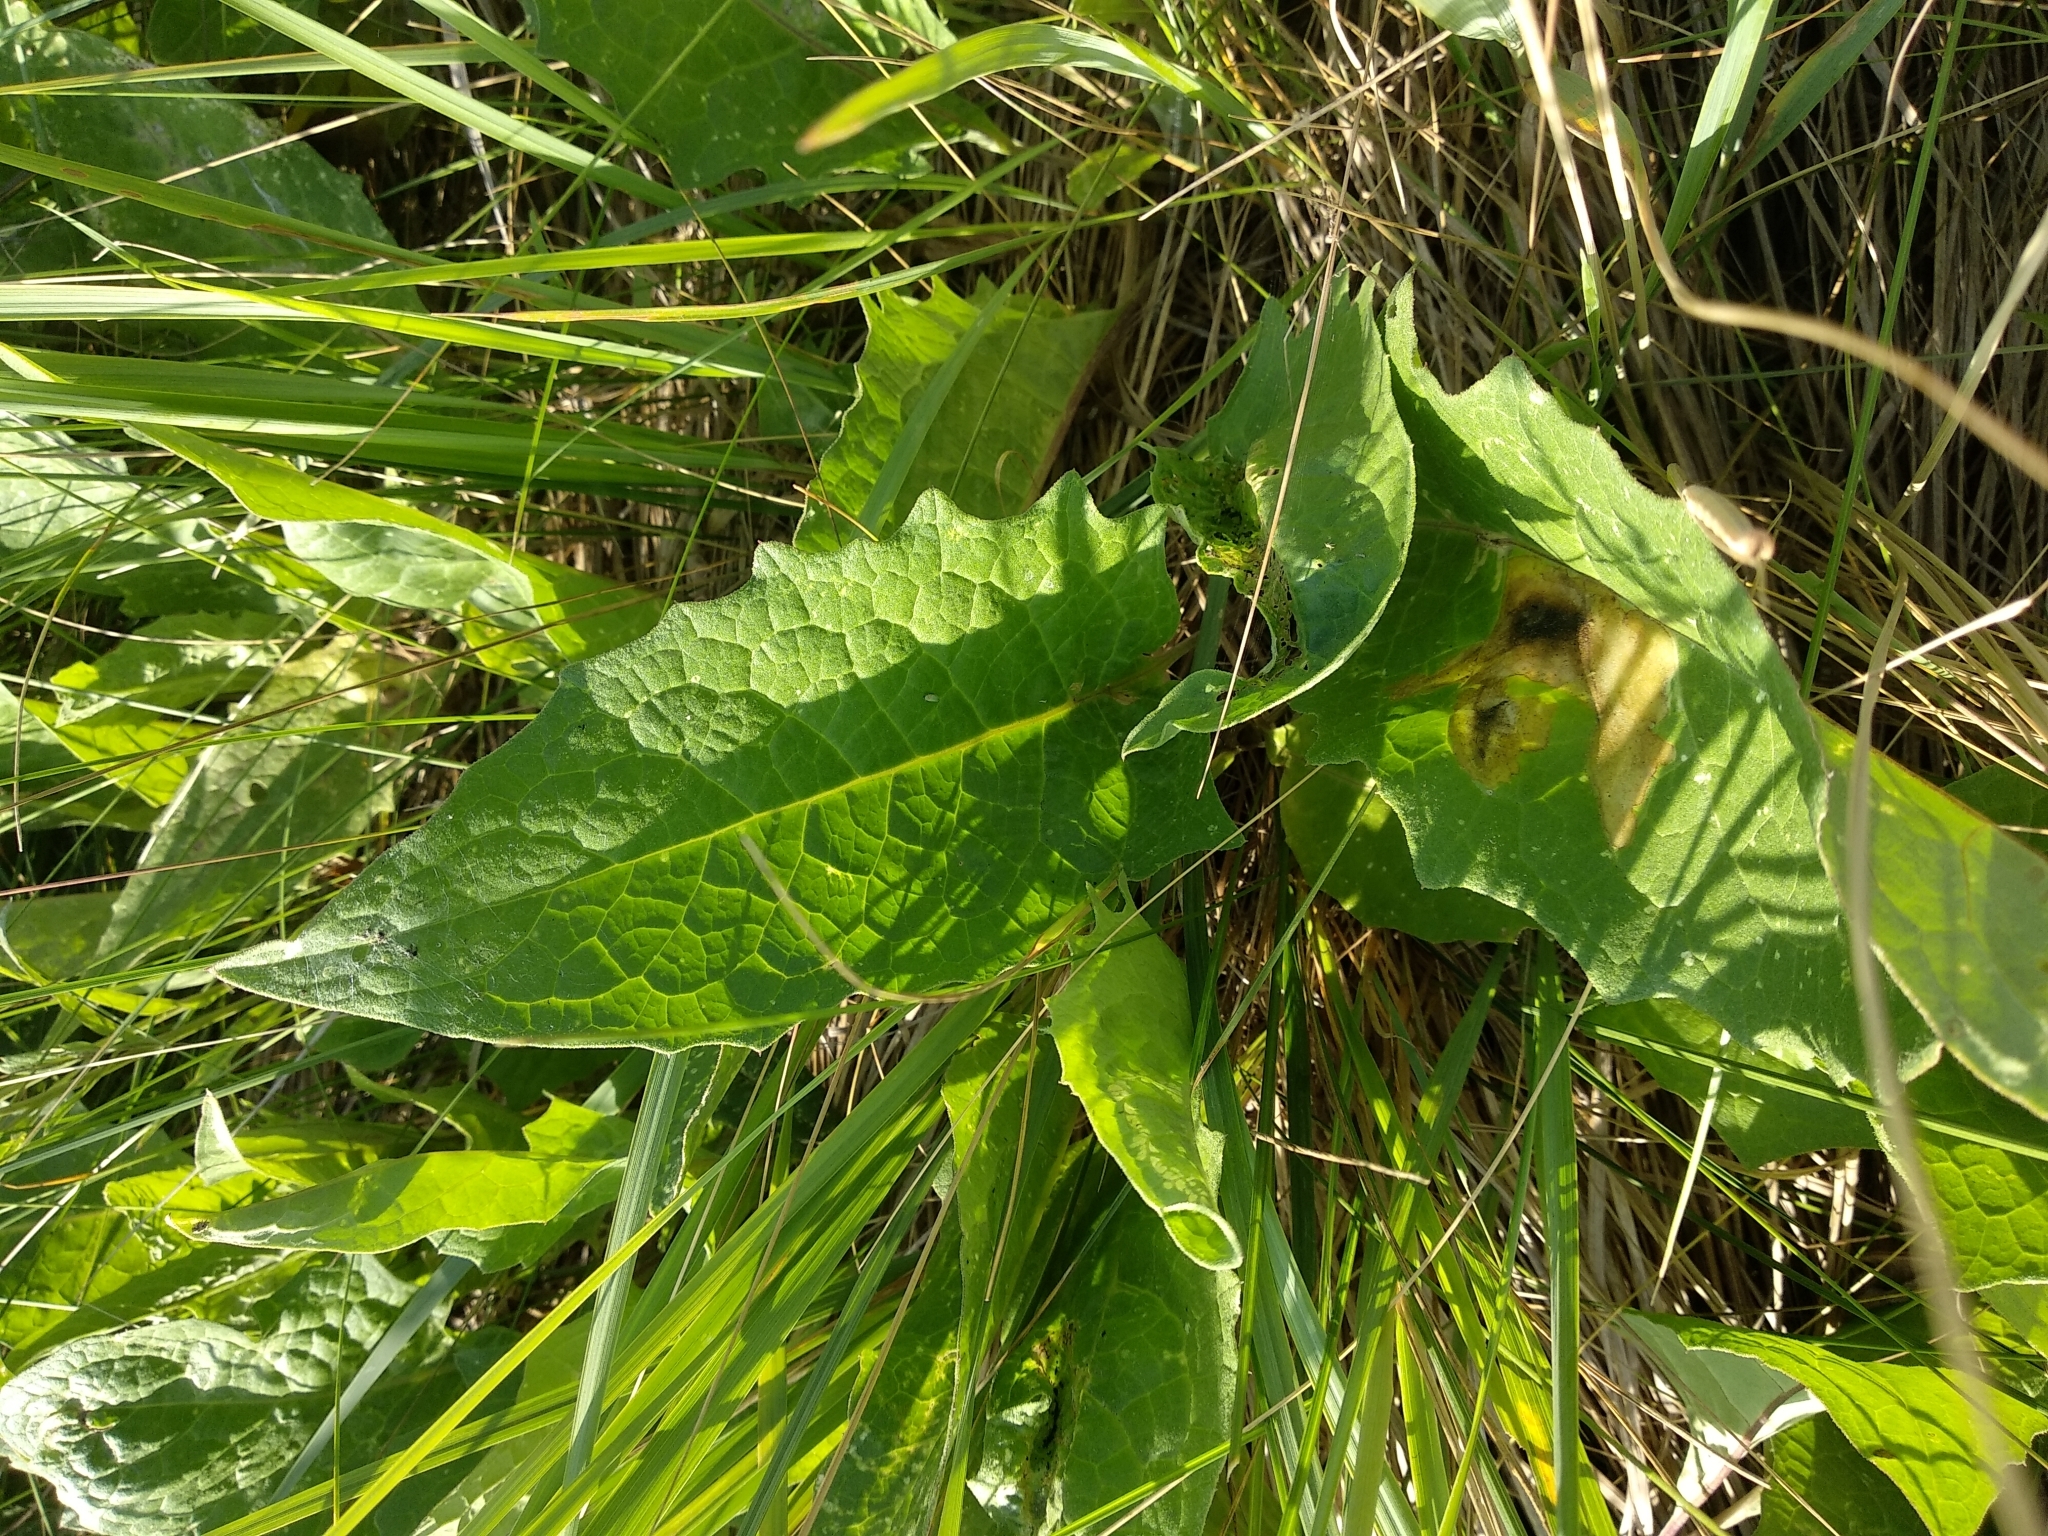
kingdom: Plantae
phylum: Tracheophyta
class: Magnoliopsida
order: Asterales
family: Asteraceae
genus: Saussurea
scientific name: Saussurea amara
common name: Alberta sawwort
